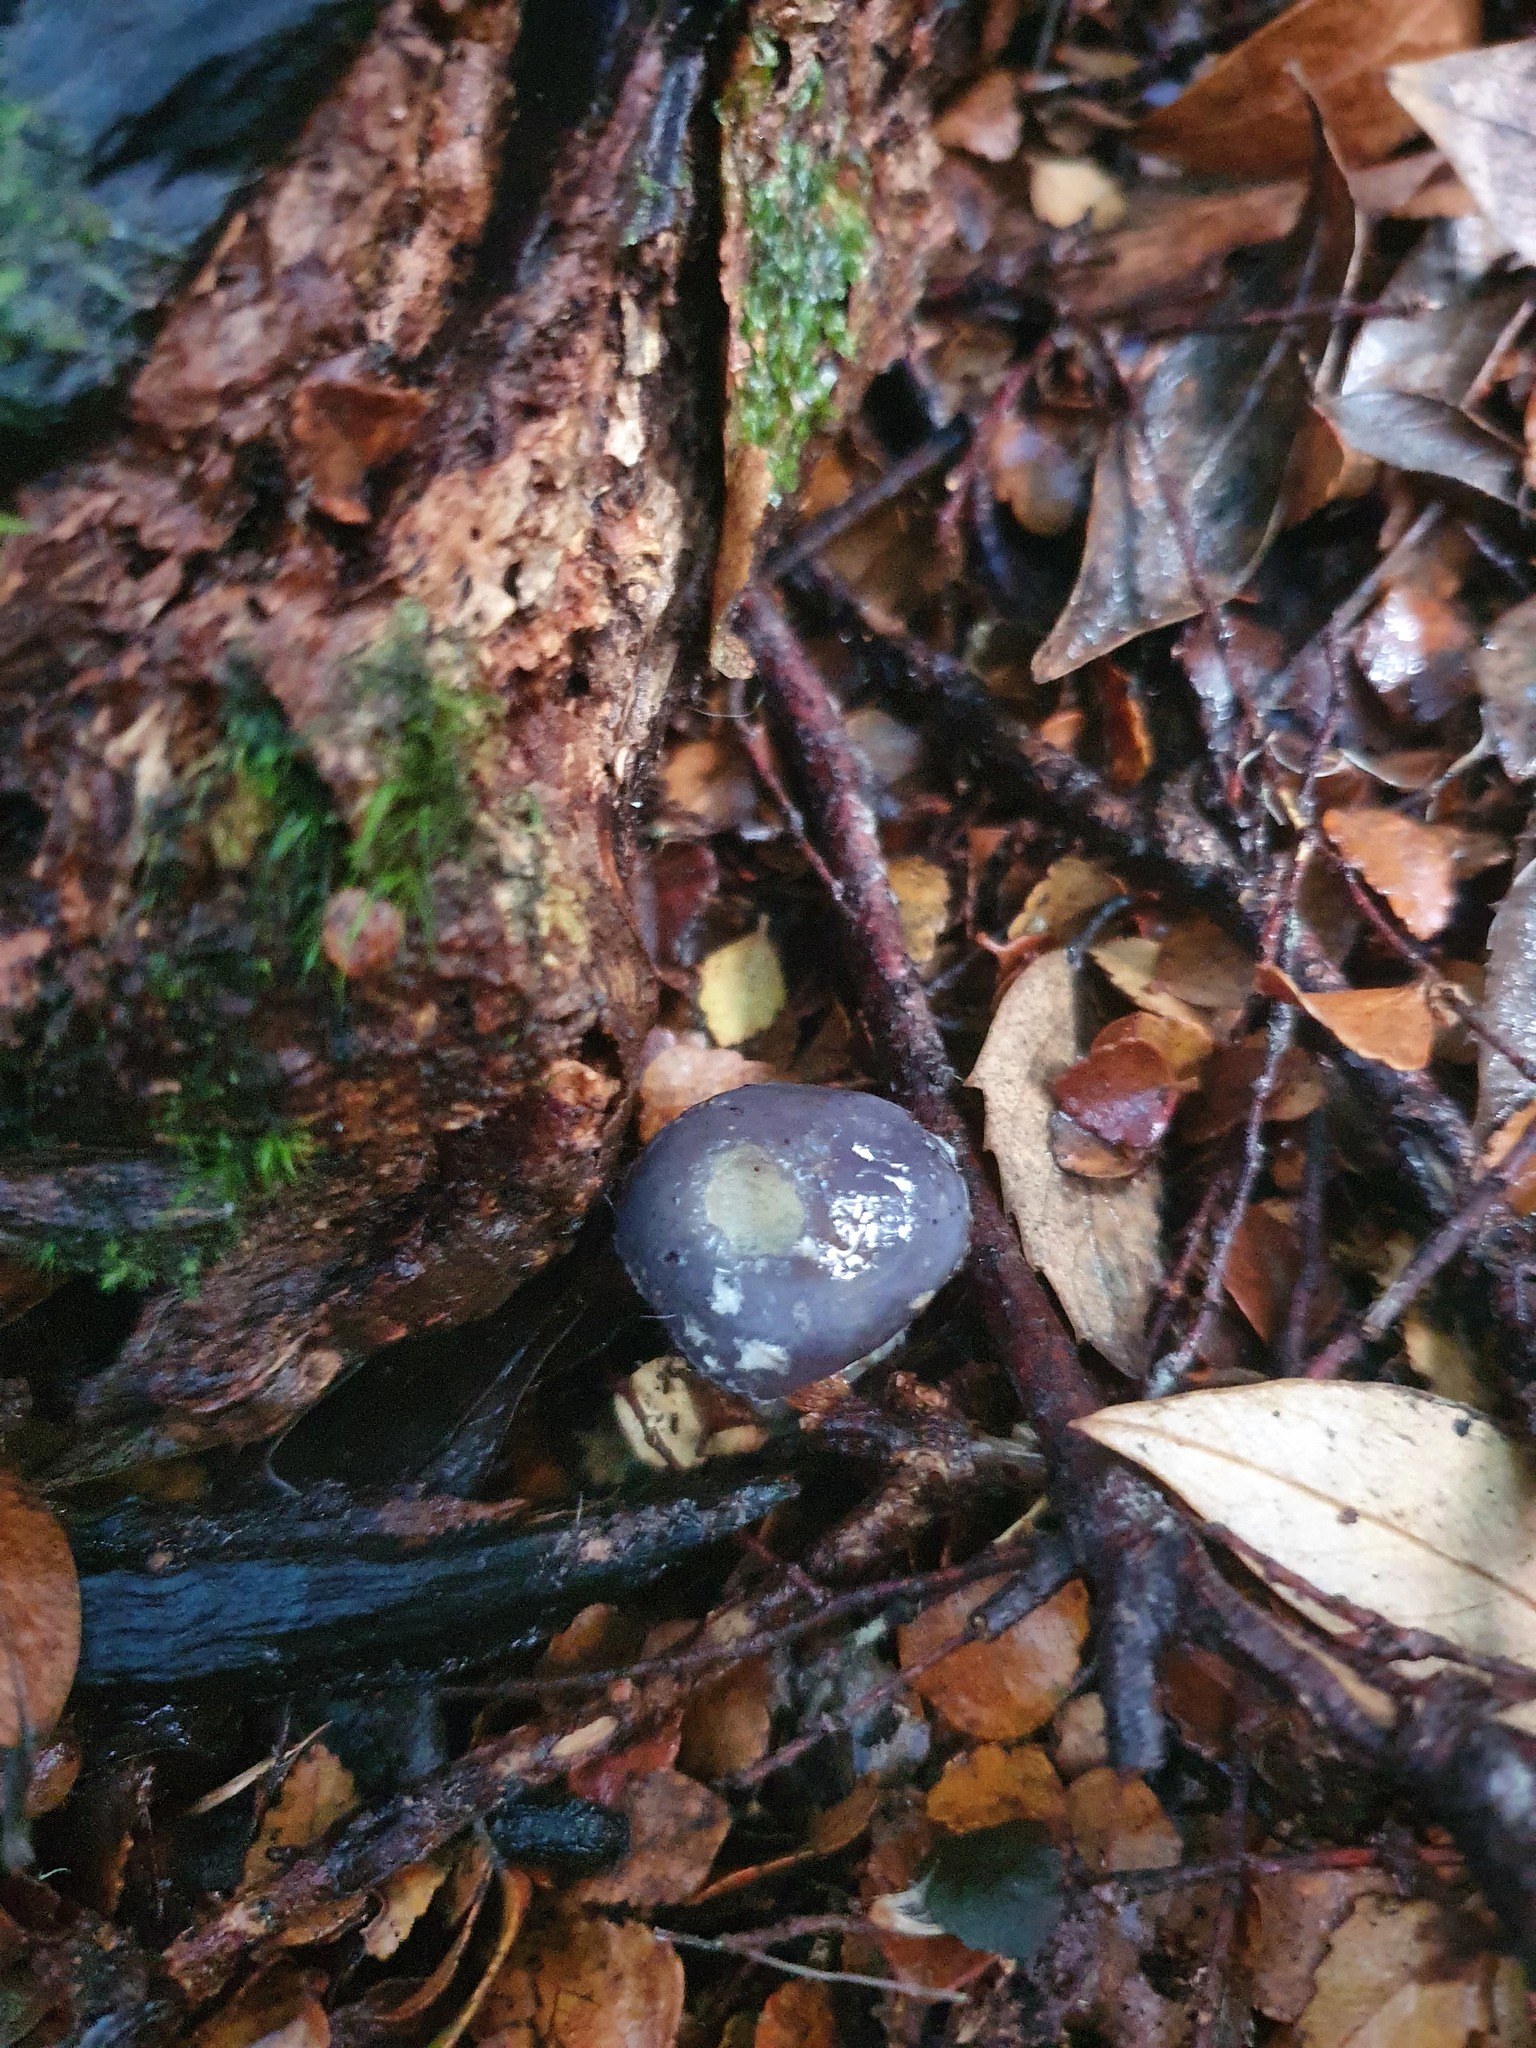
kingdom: Fungi
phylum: Basidiomycota
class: Agaricomycetes
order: Agaricales
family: Cortinariaceae
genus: Cortinarius
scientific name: Cortinarius rotundisporus
